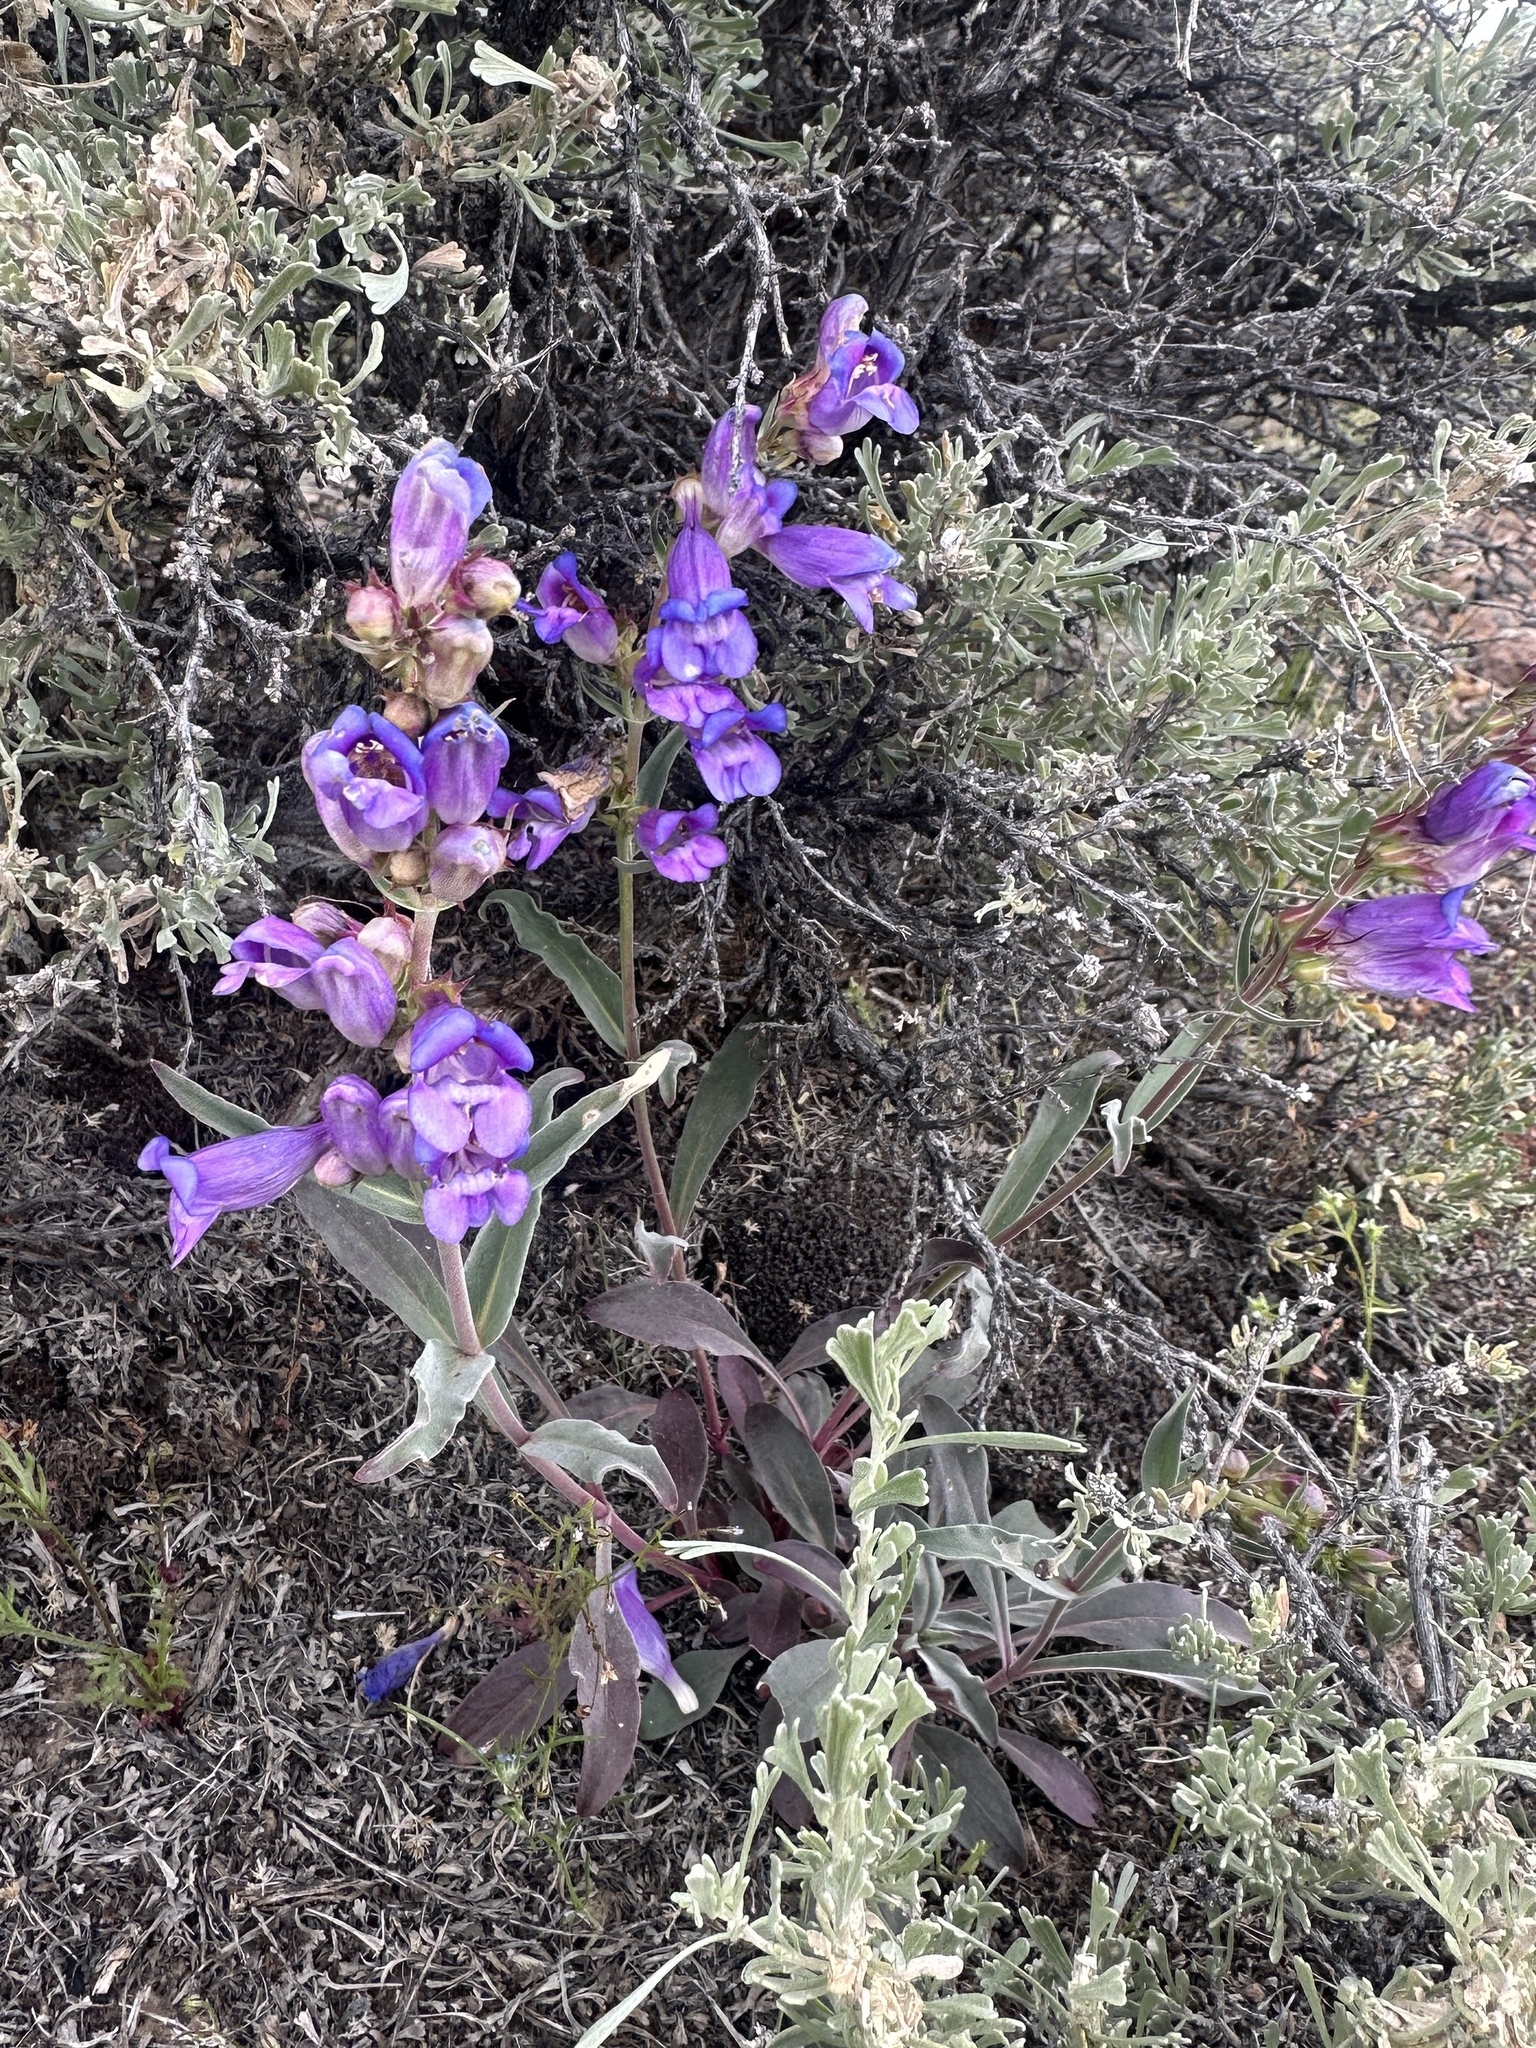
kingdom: Plantae
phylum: Tracheophyta
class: Magnoliopsida
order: Lamiales
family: Plantaginaceae
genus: Penstemon
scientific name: Penstemon speciosus
